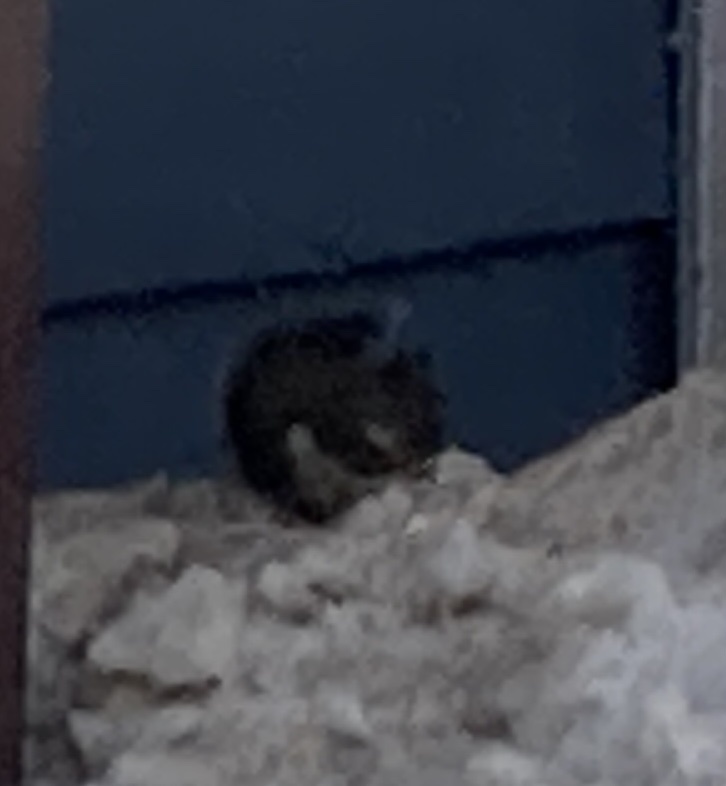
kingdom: Animalia
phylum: Chordata
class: Mammalia
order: Rodentia
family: Sciuridae
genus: Tamiasciurus
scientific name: Tamiasciurus douglasii
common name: Douglas's squirrel
